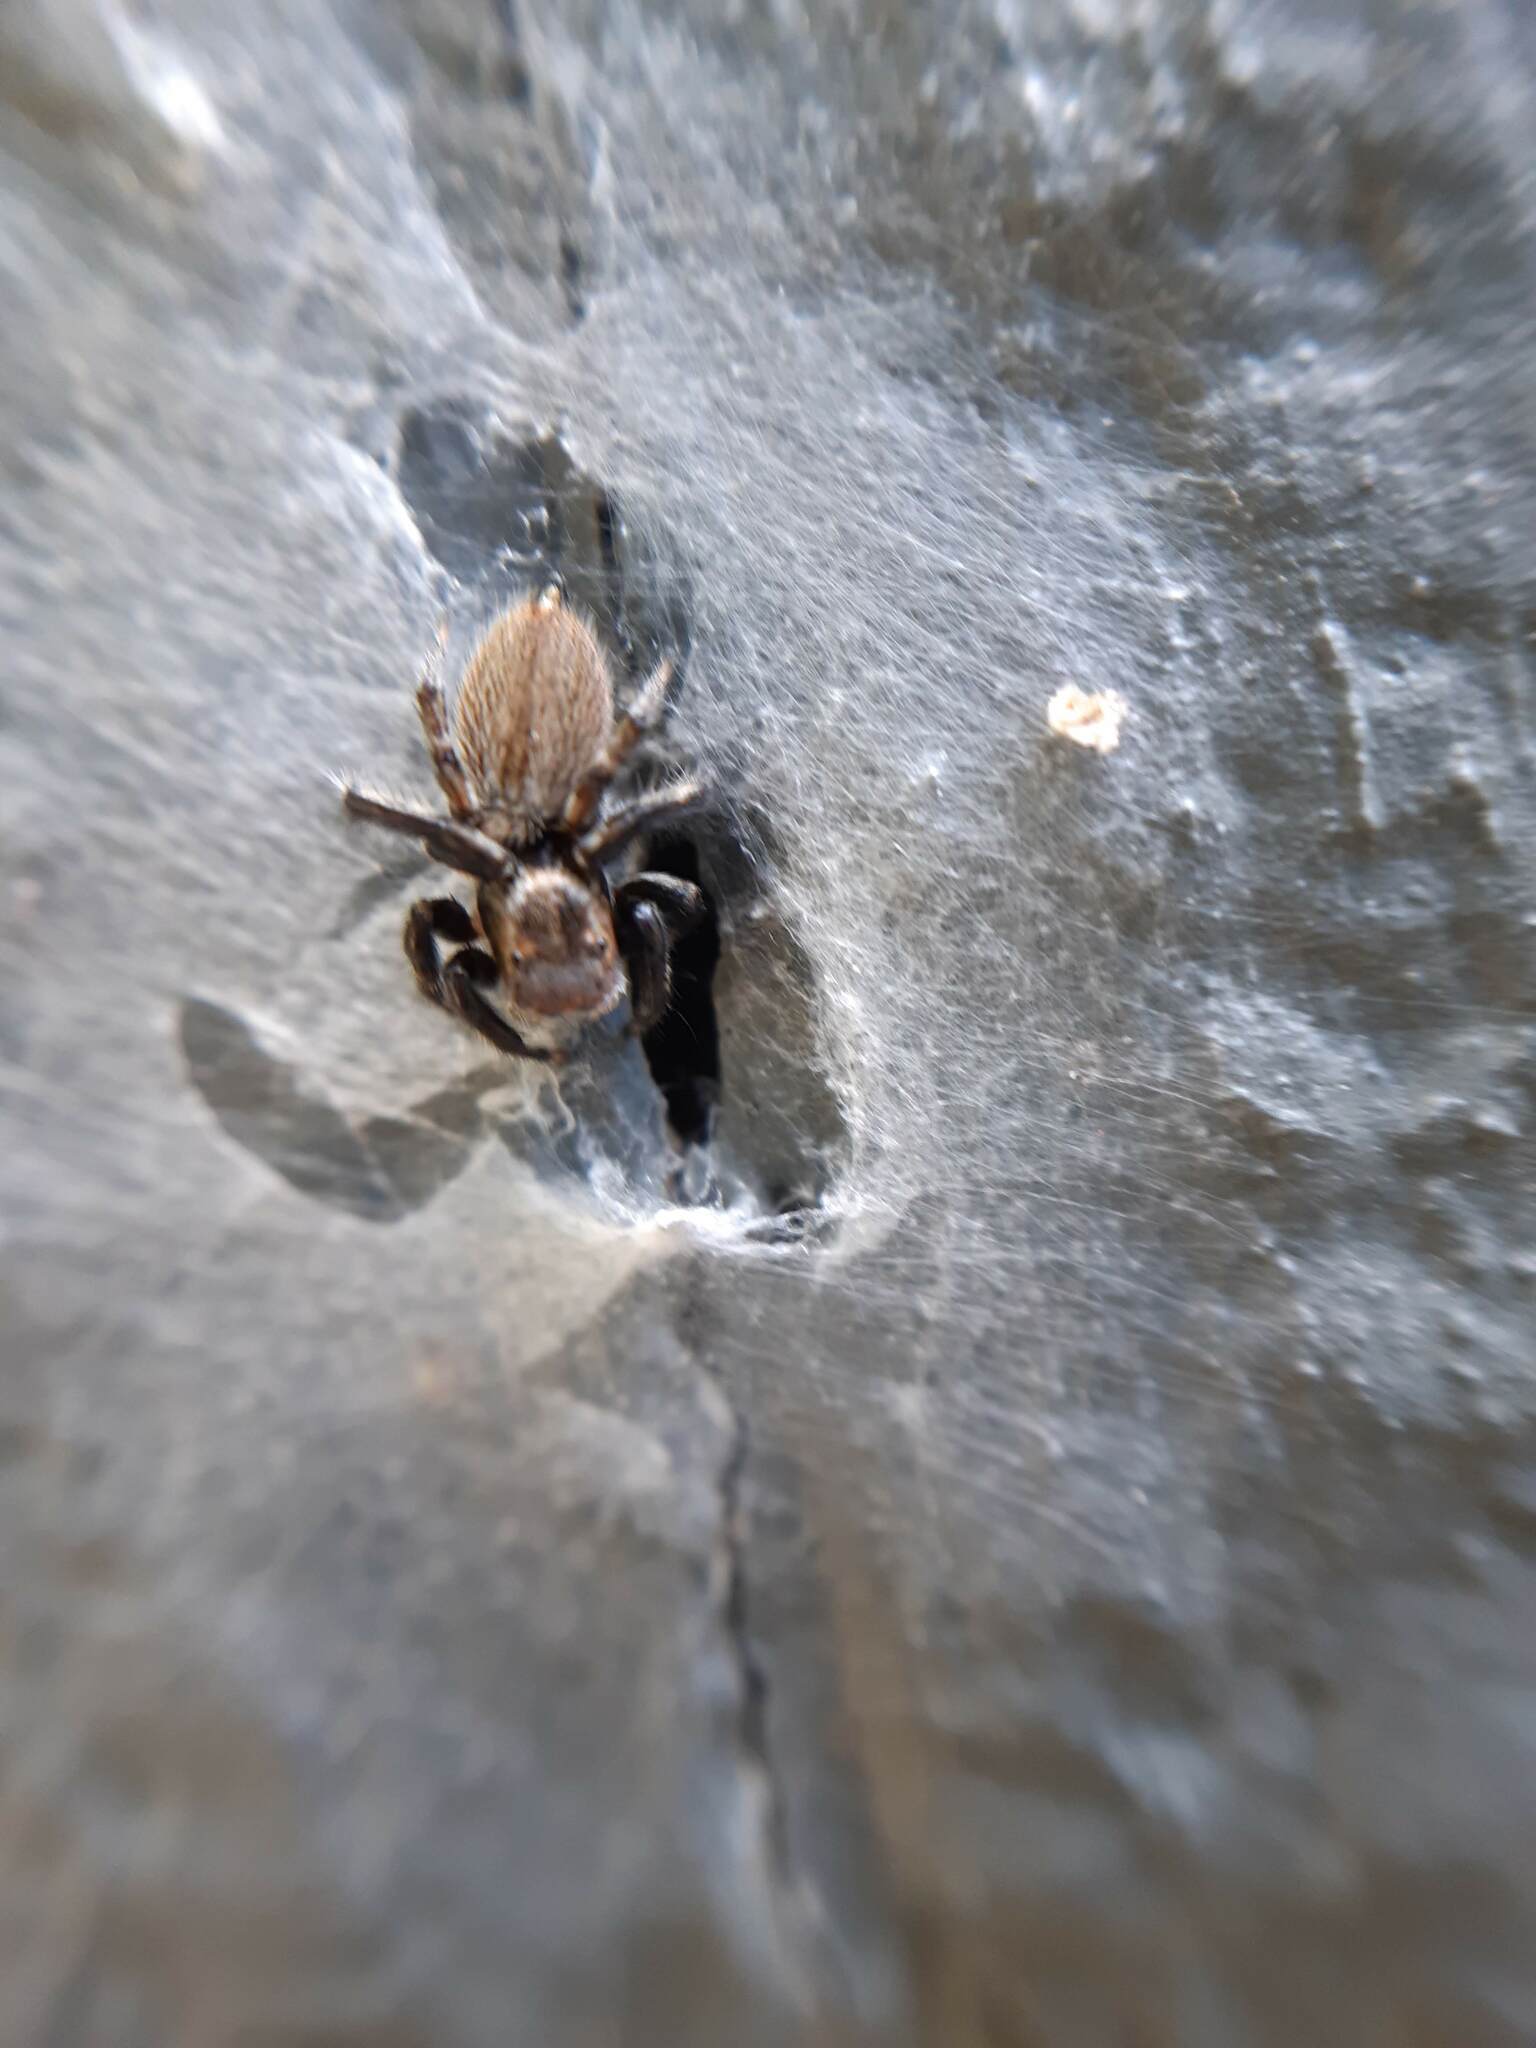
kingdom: Animalia
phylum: Arthropoda
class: Arachnida
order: Araneae
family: Salticidae
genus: Maratus
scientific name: Maratus griseus
